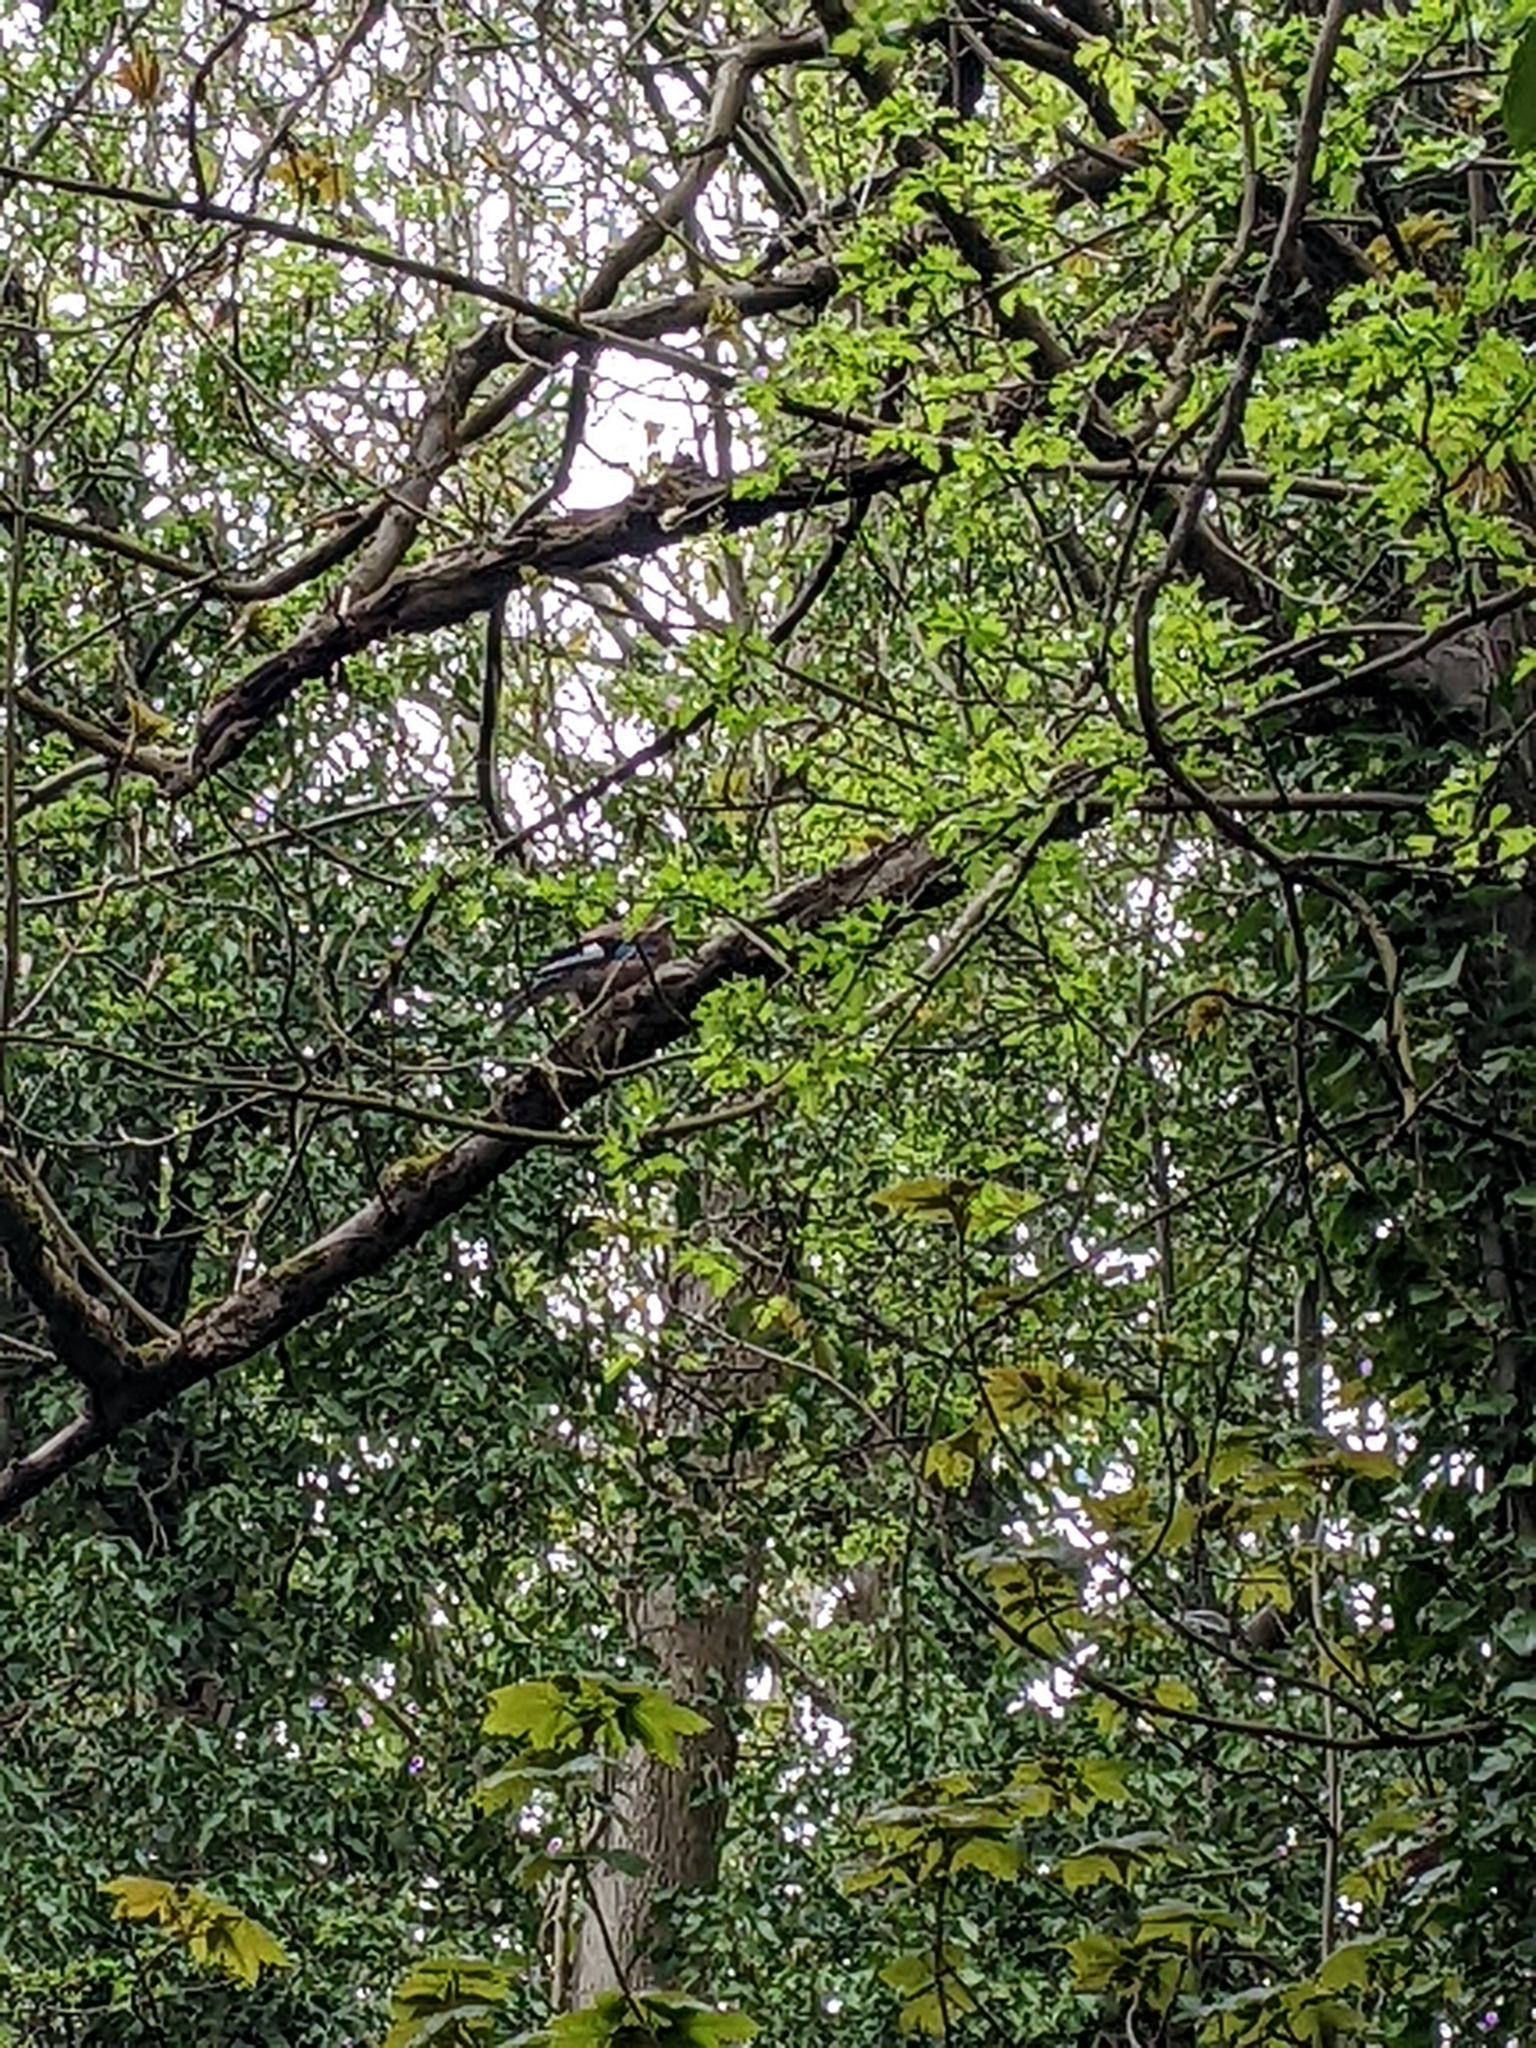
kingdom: Animalia
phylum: Chordata
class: Aves
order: Passeriformes
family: Corvidae
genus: Garrulus
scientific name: Garrulus glandarius
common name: Eurasian jay
